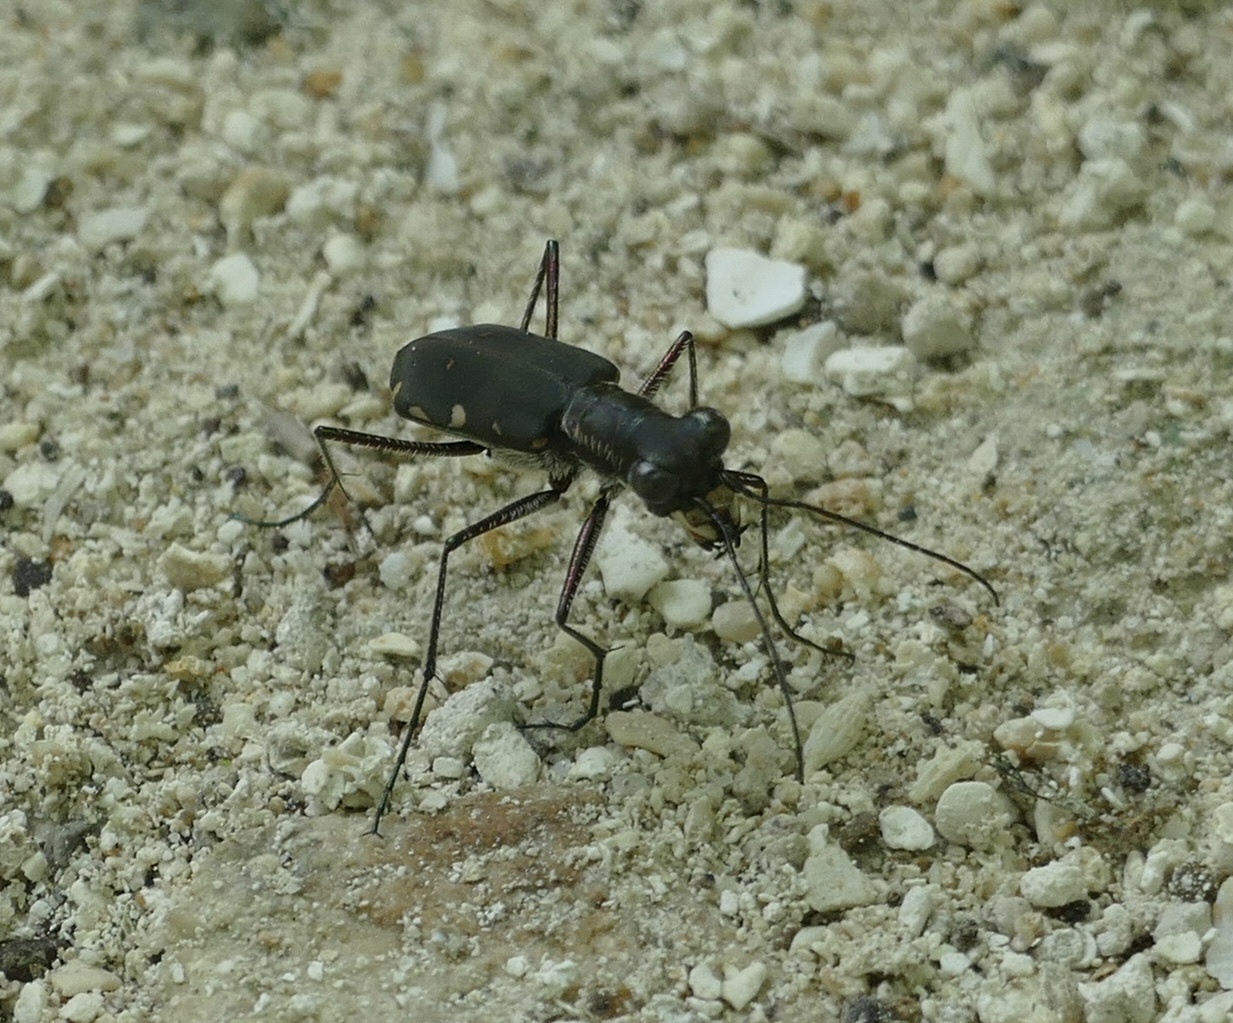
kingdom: Animalia
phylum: Arthropoda
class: Insecta
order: Coleoptera
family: Carabidae
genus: Cicindela
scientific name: Cicindela durvillei
